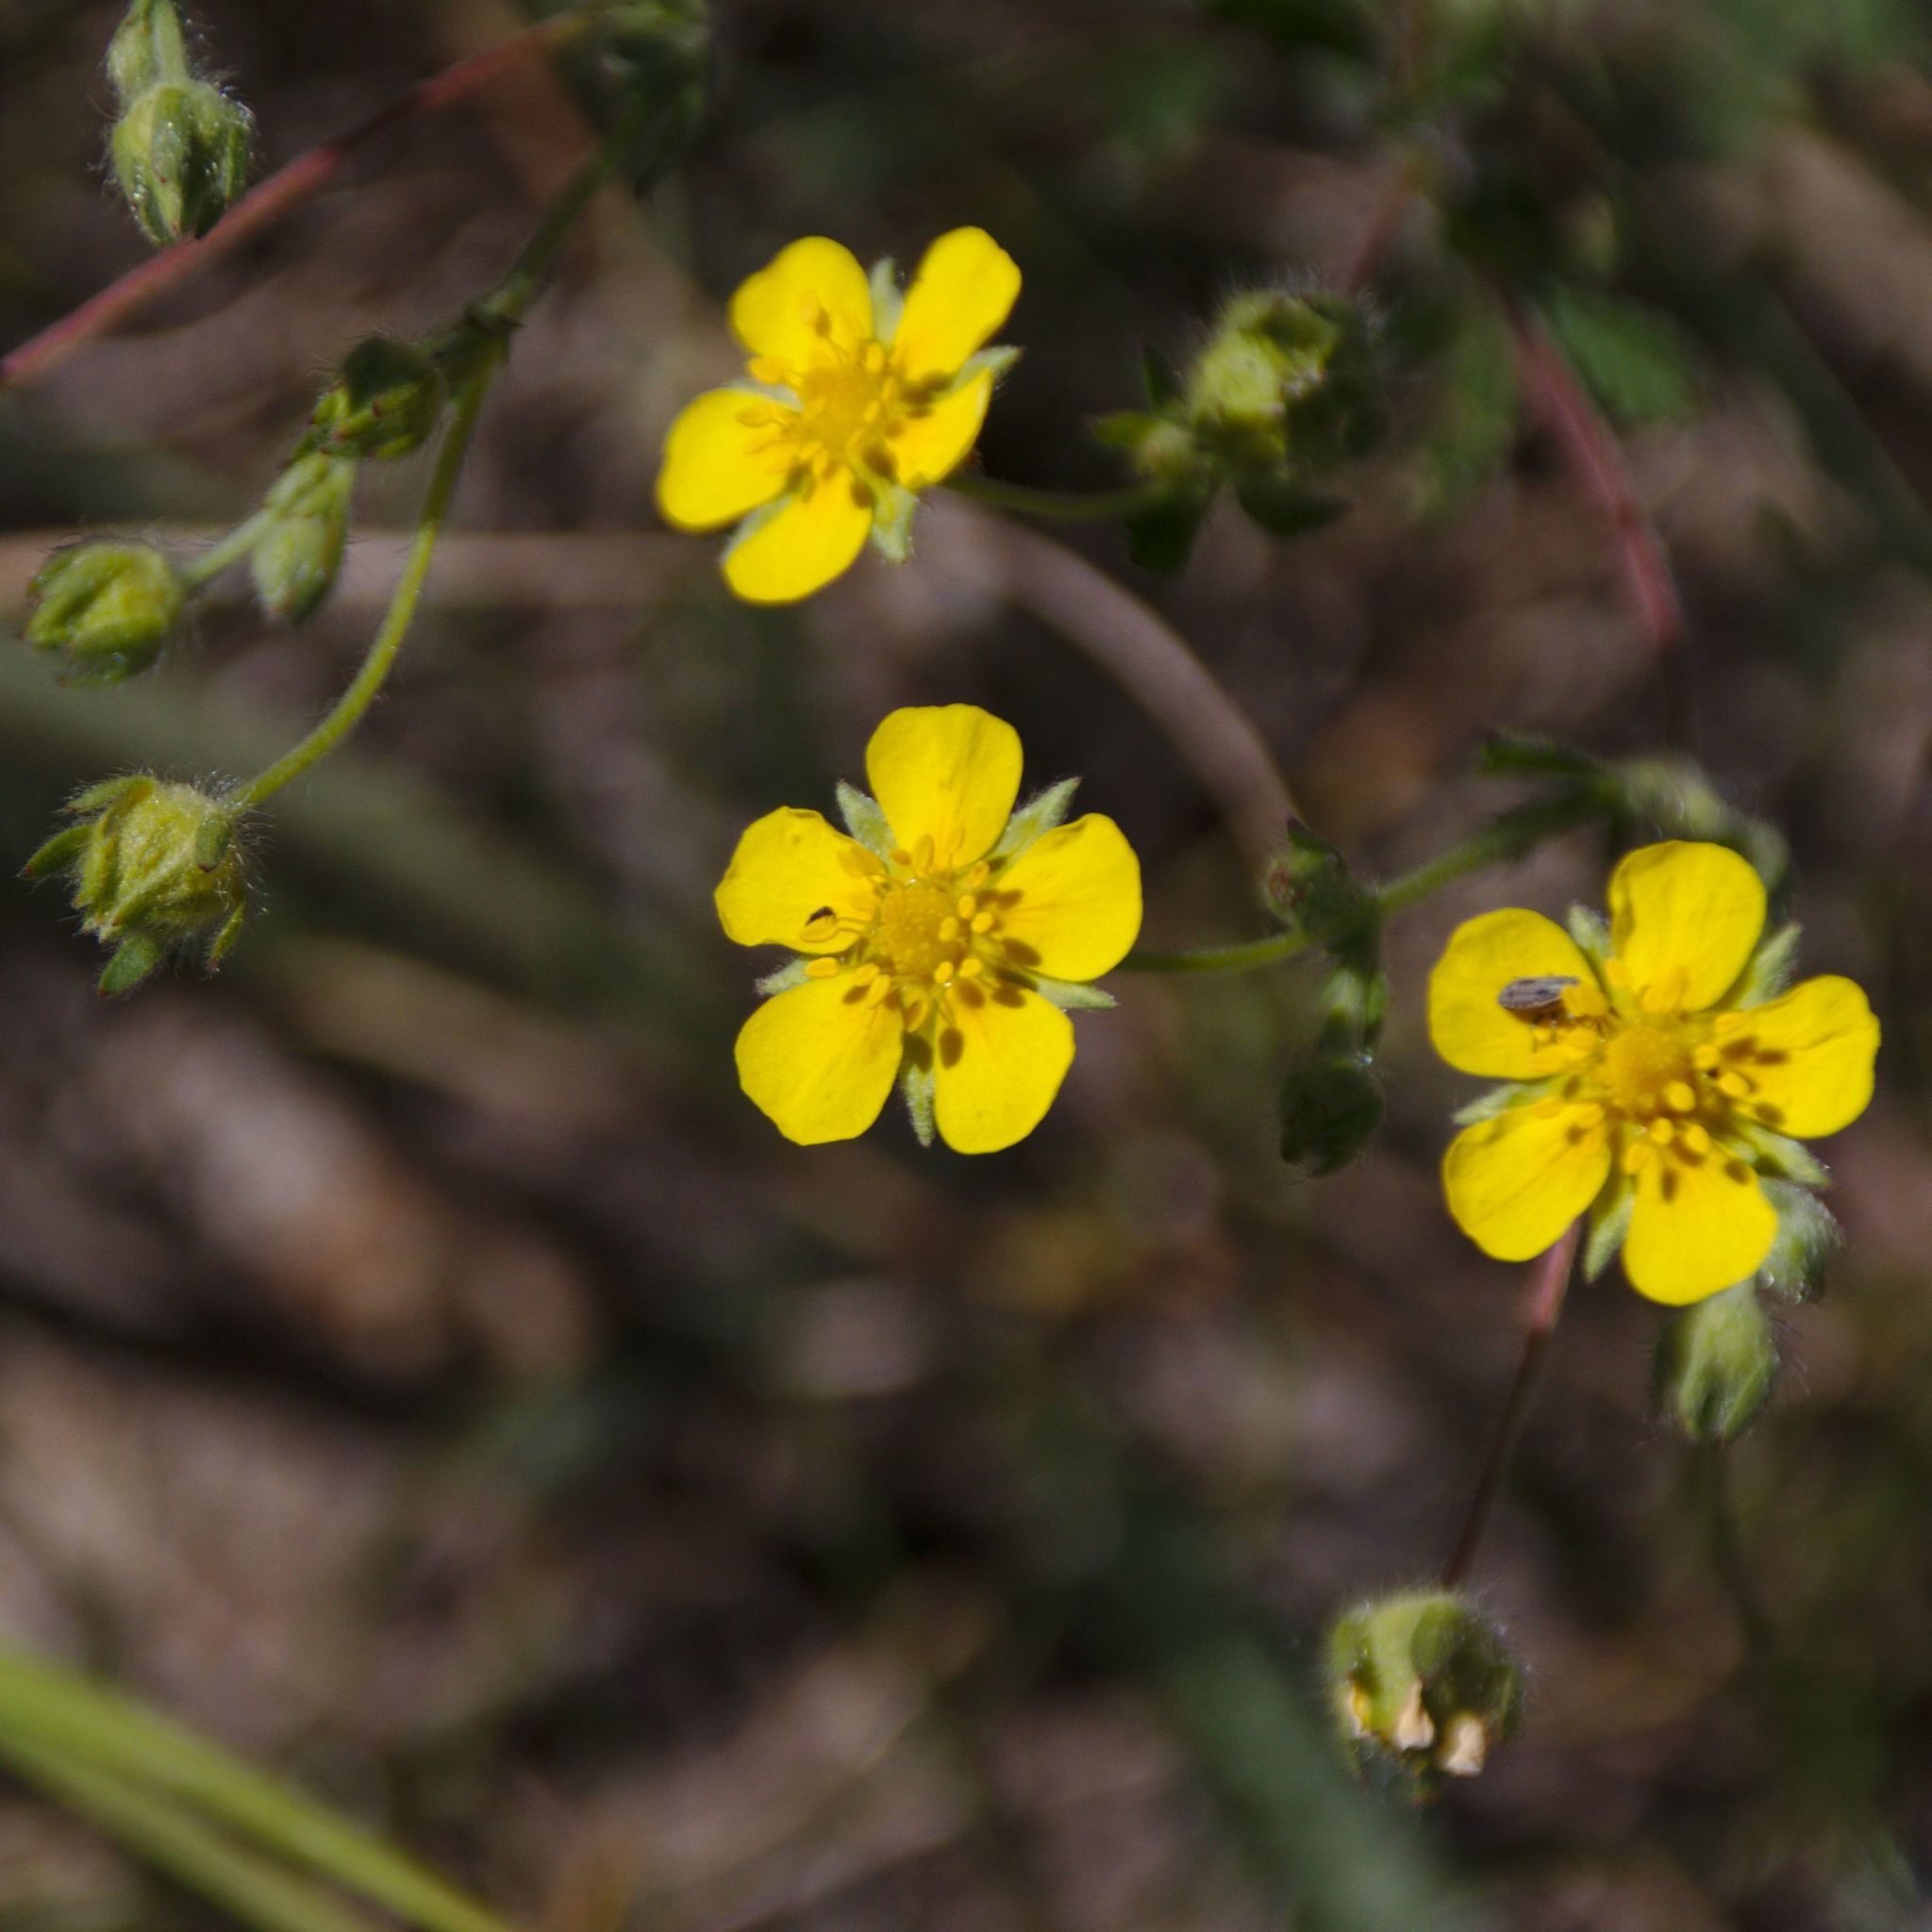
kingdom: Plantae
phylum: Tracheophyta
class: Magnoliopsida
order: Rosales
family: Rosaceae
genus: Potentilla
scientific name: Potentilla argentea
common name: Hoary cinquefoil
